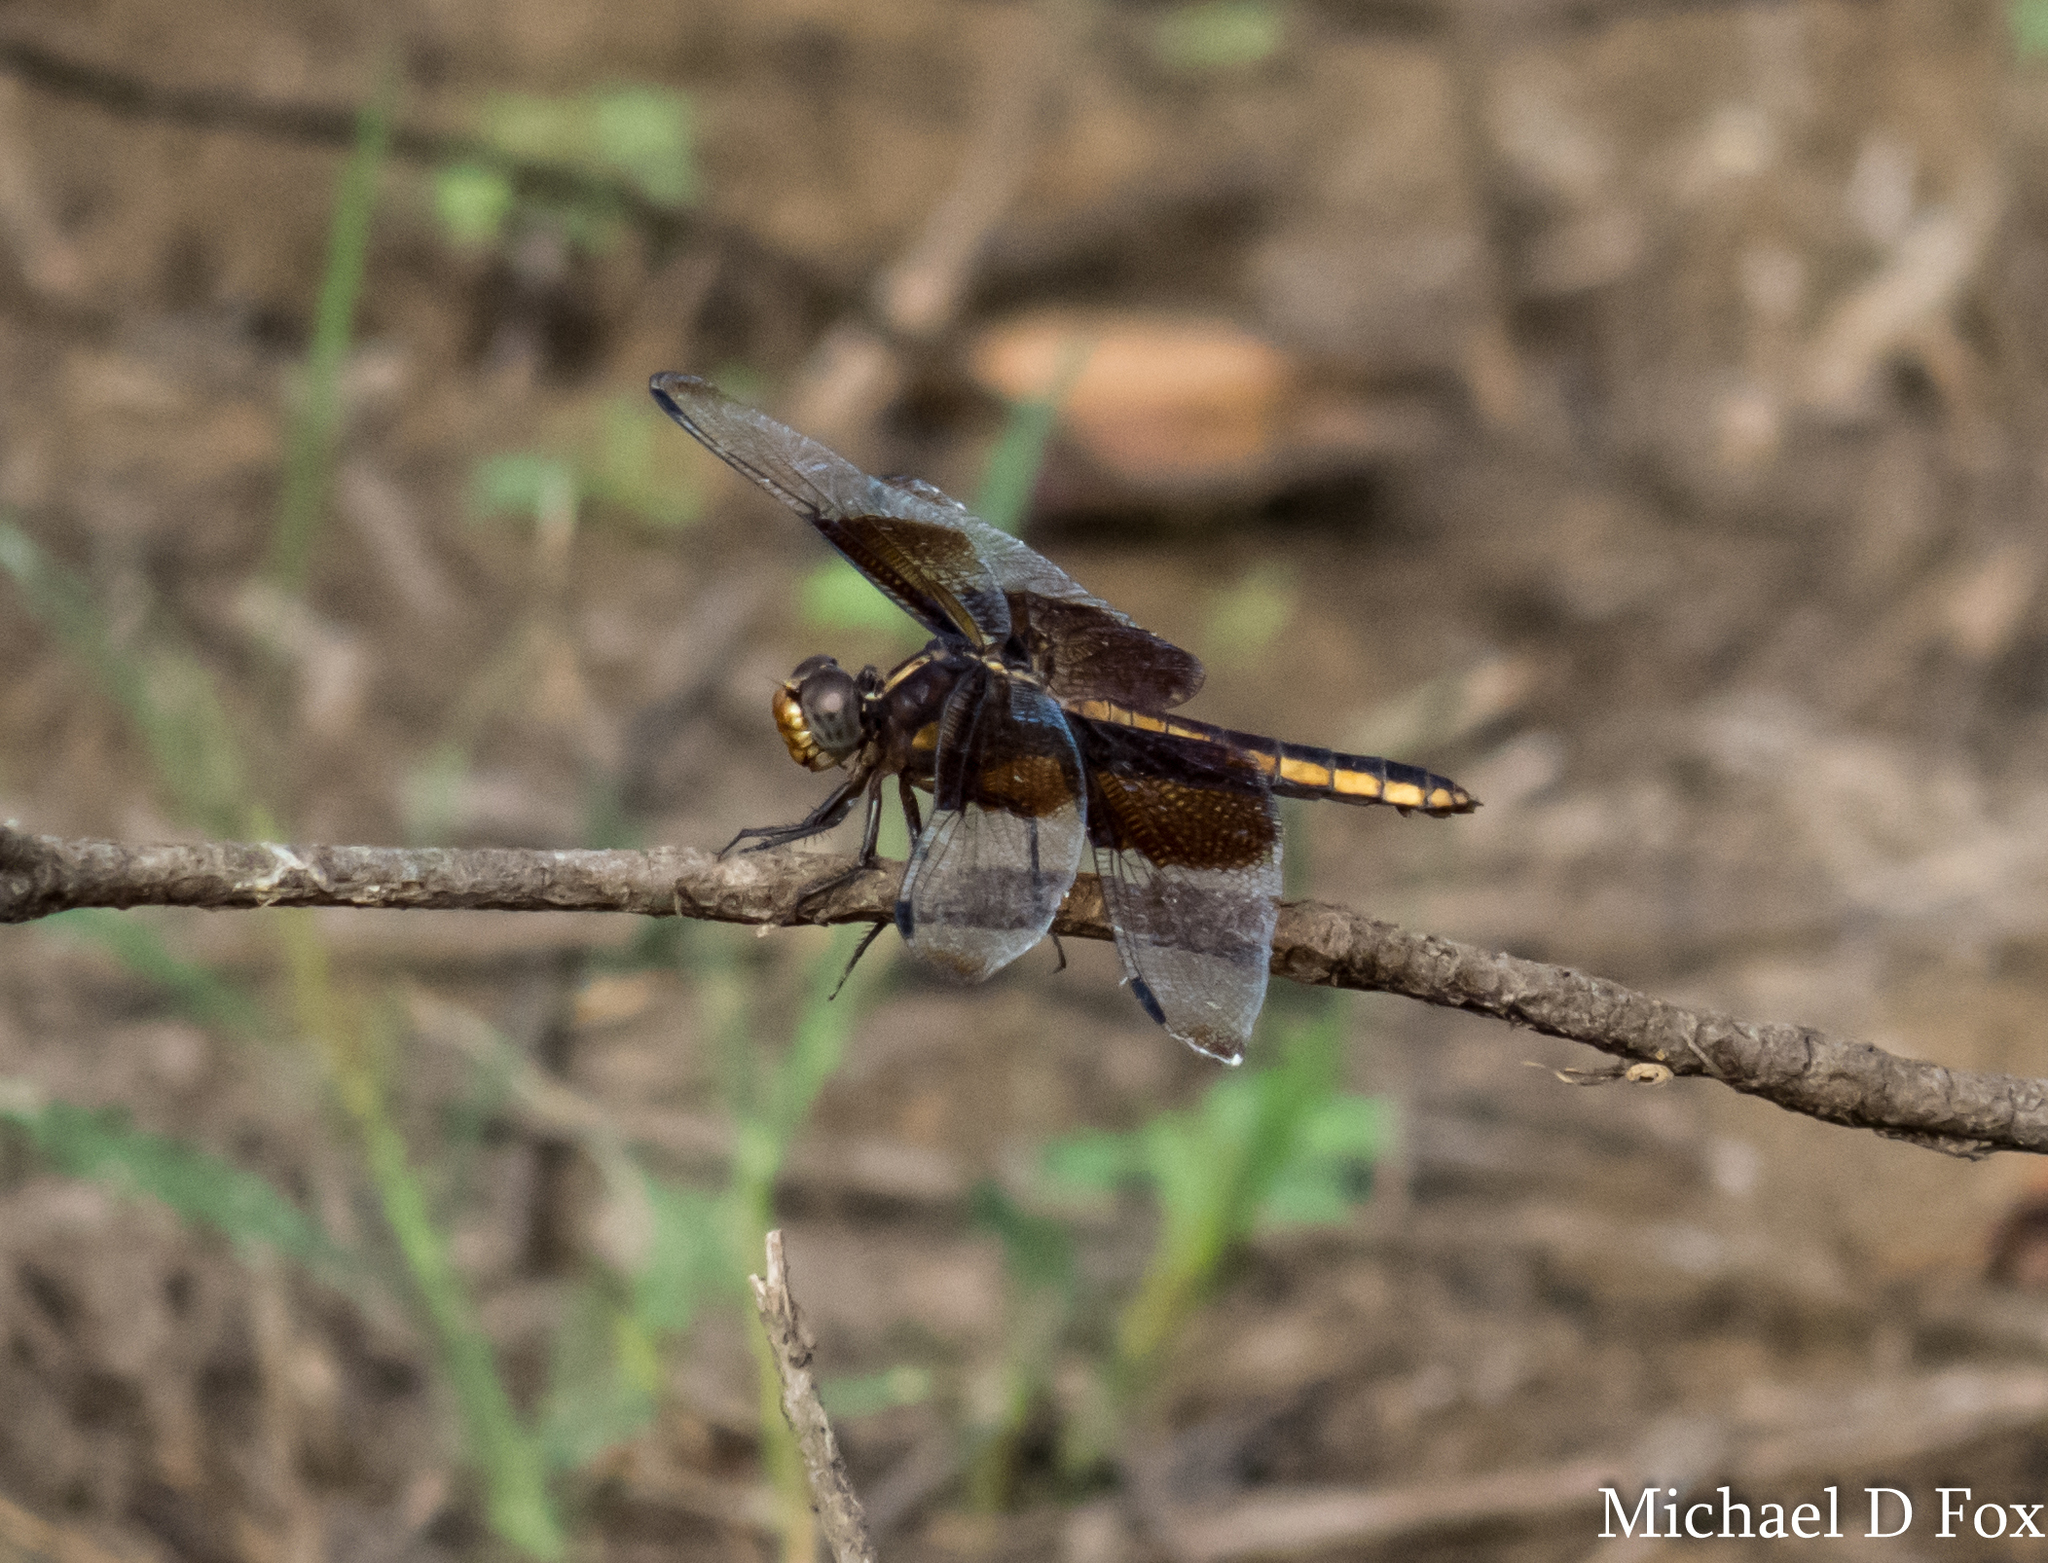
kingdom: Animalia
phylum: Arthropoda
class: Insecta
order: Odonata
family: Libellulidae
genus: Libellula
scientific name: Libellula luctuosa
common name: Widow skimmer
